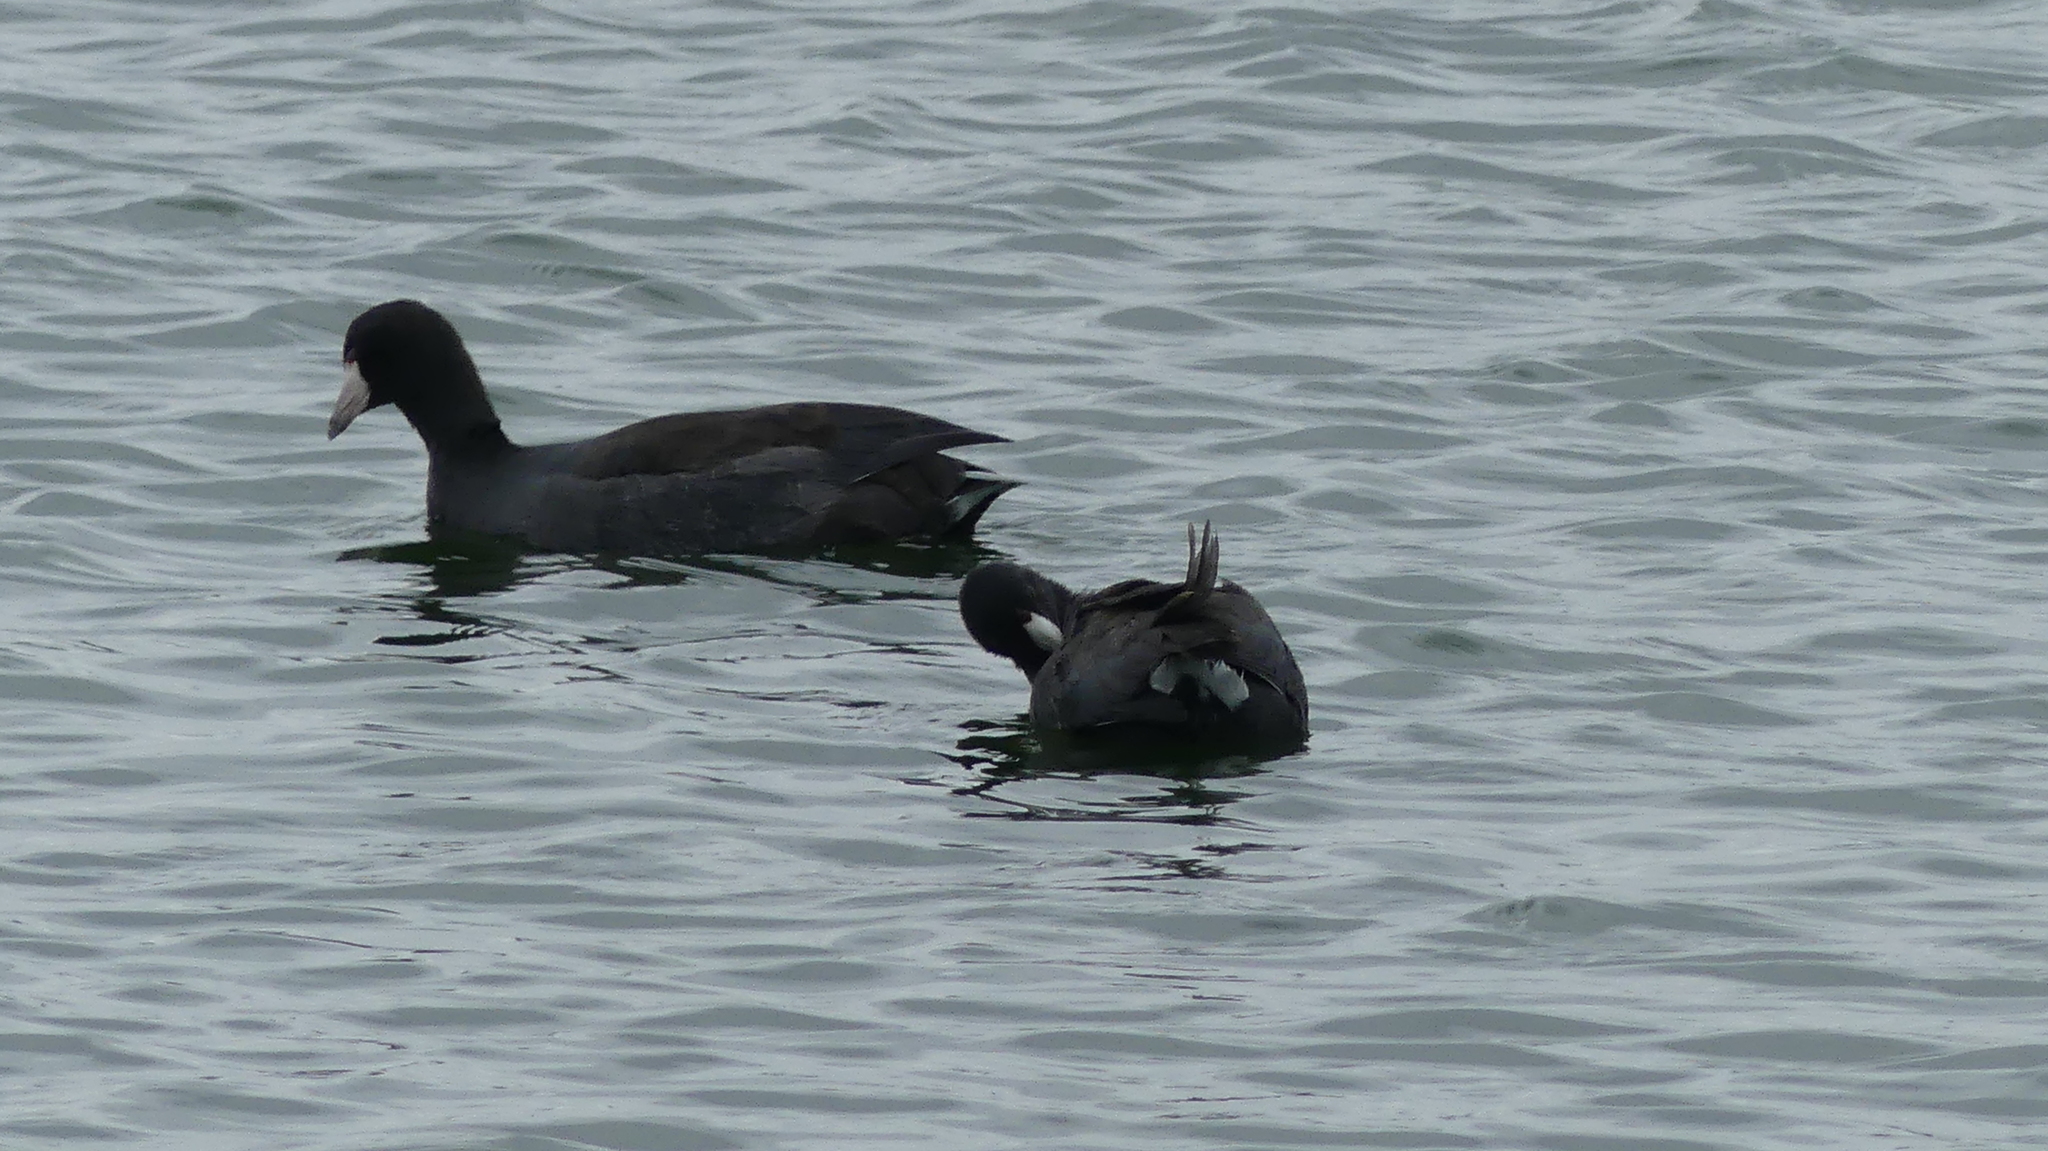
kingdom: Animalia
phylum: Chordata
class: Aves
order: Gruiformes
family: Rallidae
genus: Fulica
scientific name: Fulica americana
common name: American coot
